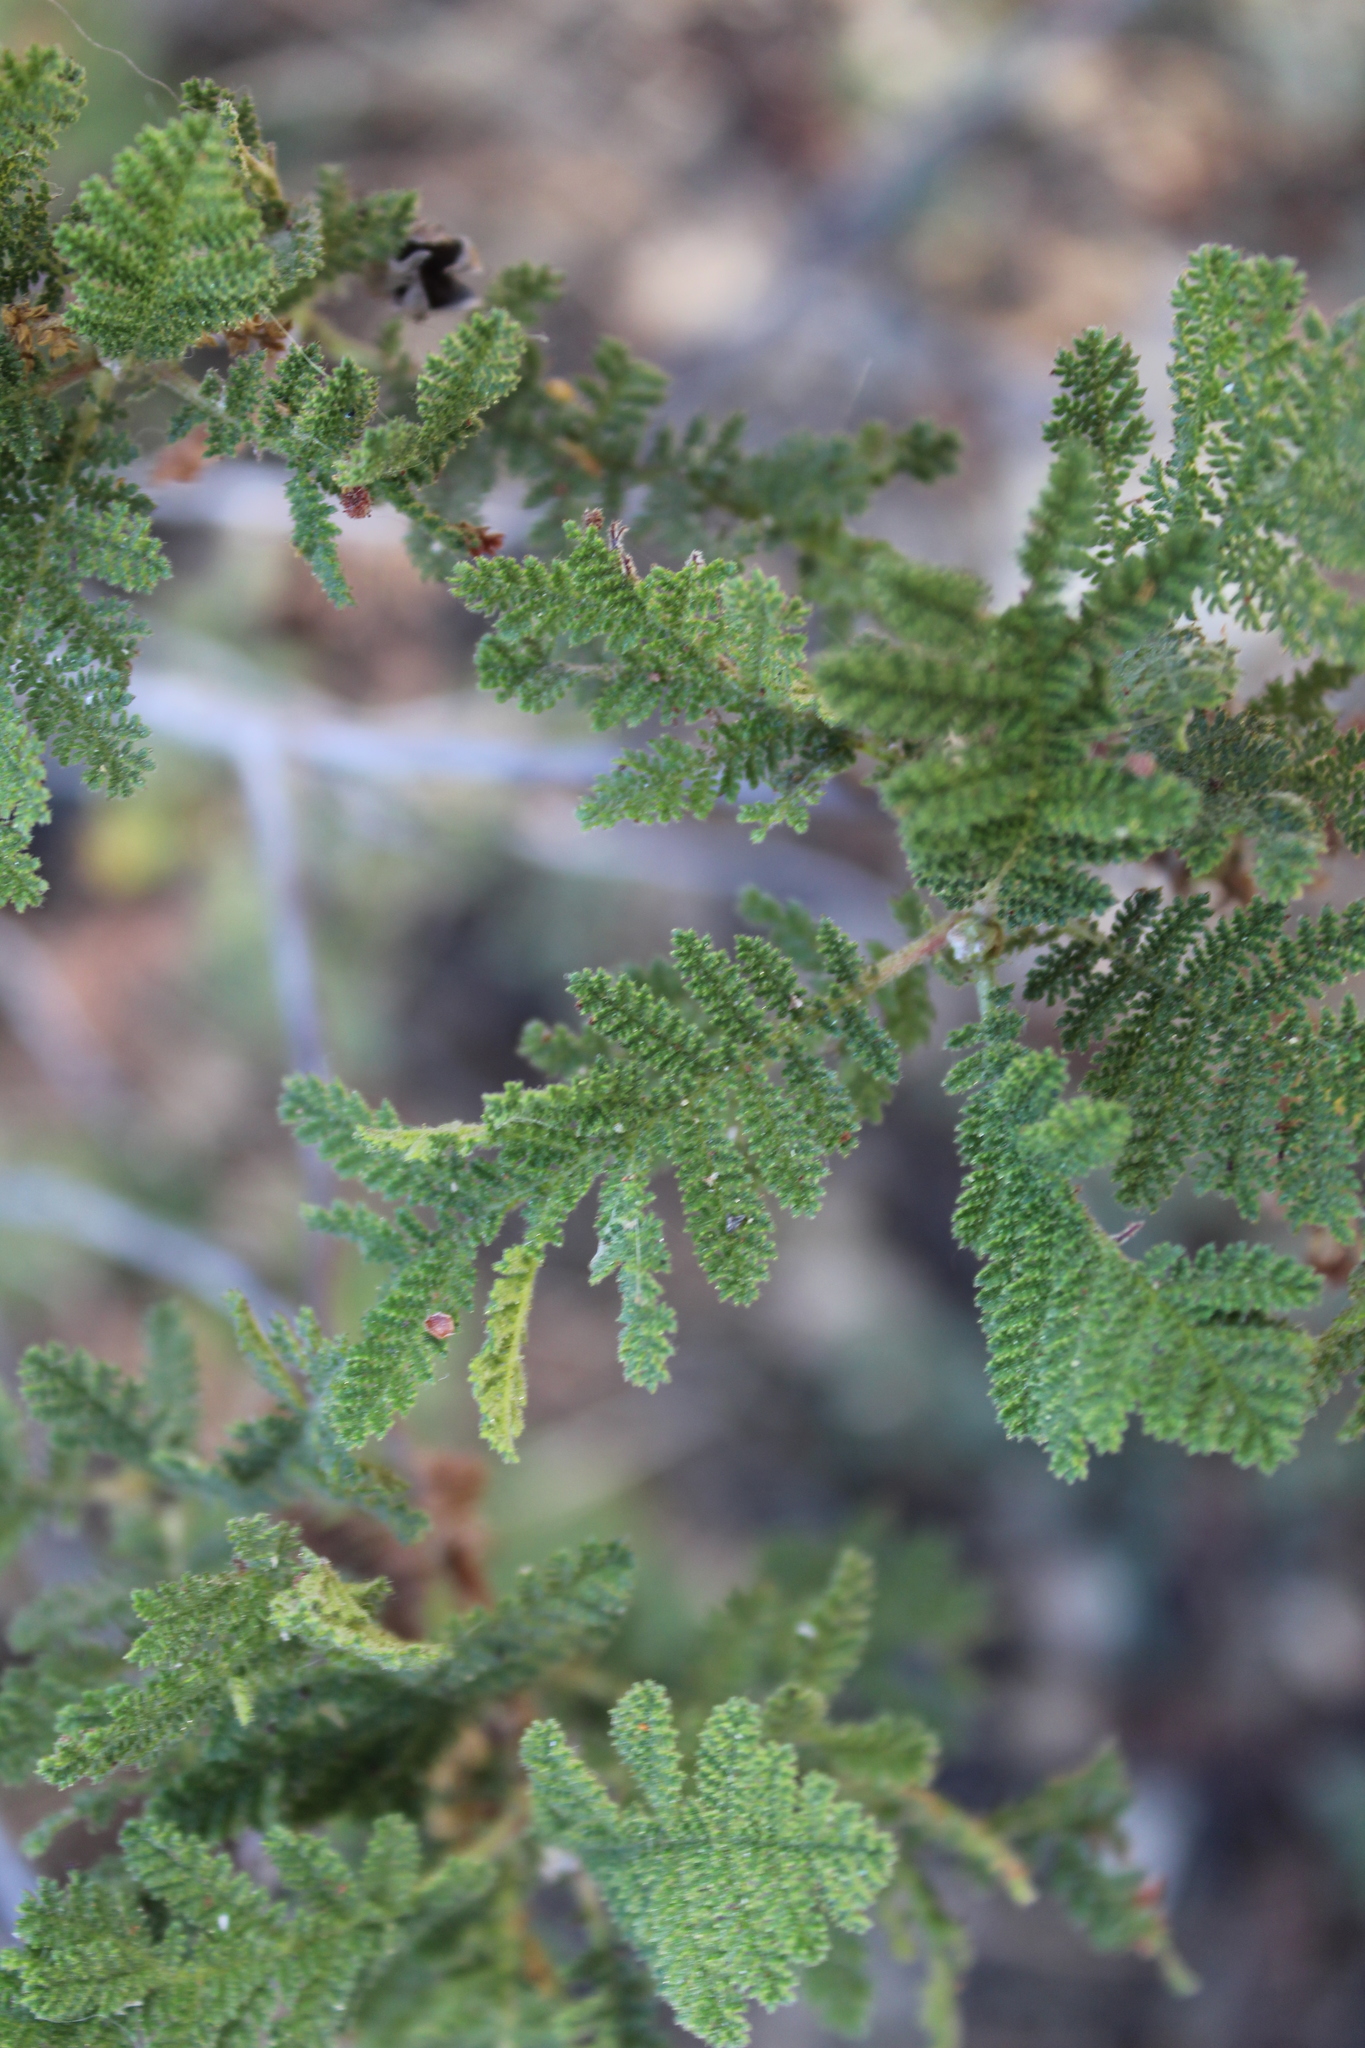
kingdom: Plantae
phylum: Tracheophyta
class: Magnoliopsida
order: Rosales
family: Rosaceae
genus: Chamaebatia
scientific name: Chamaebatia foliolosa
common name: Mountain misery
